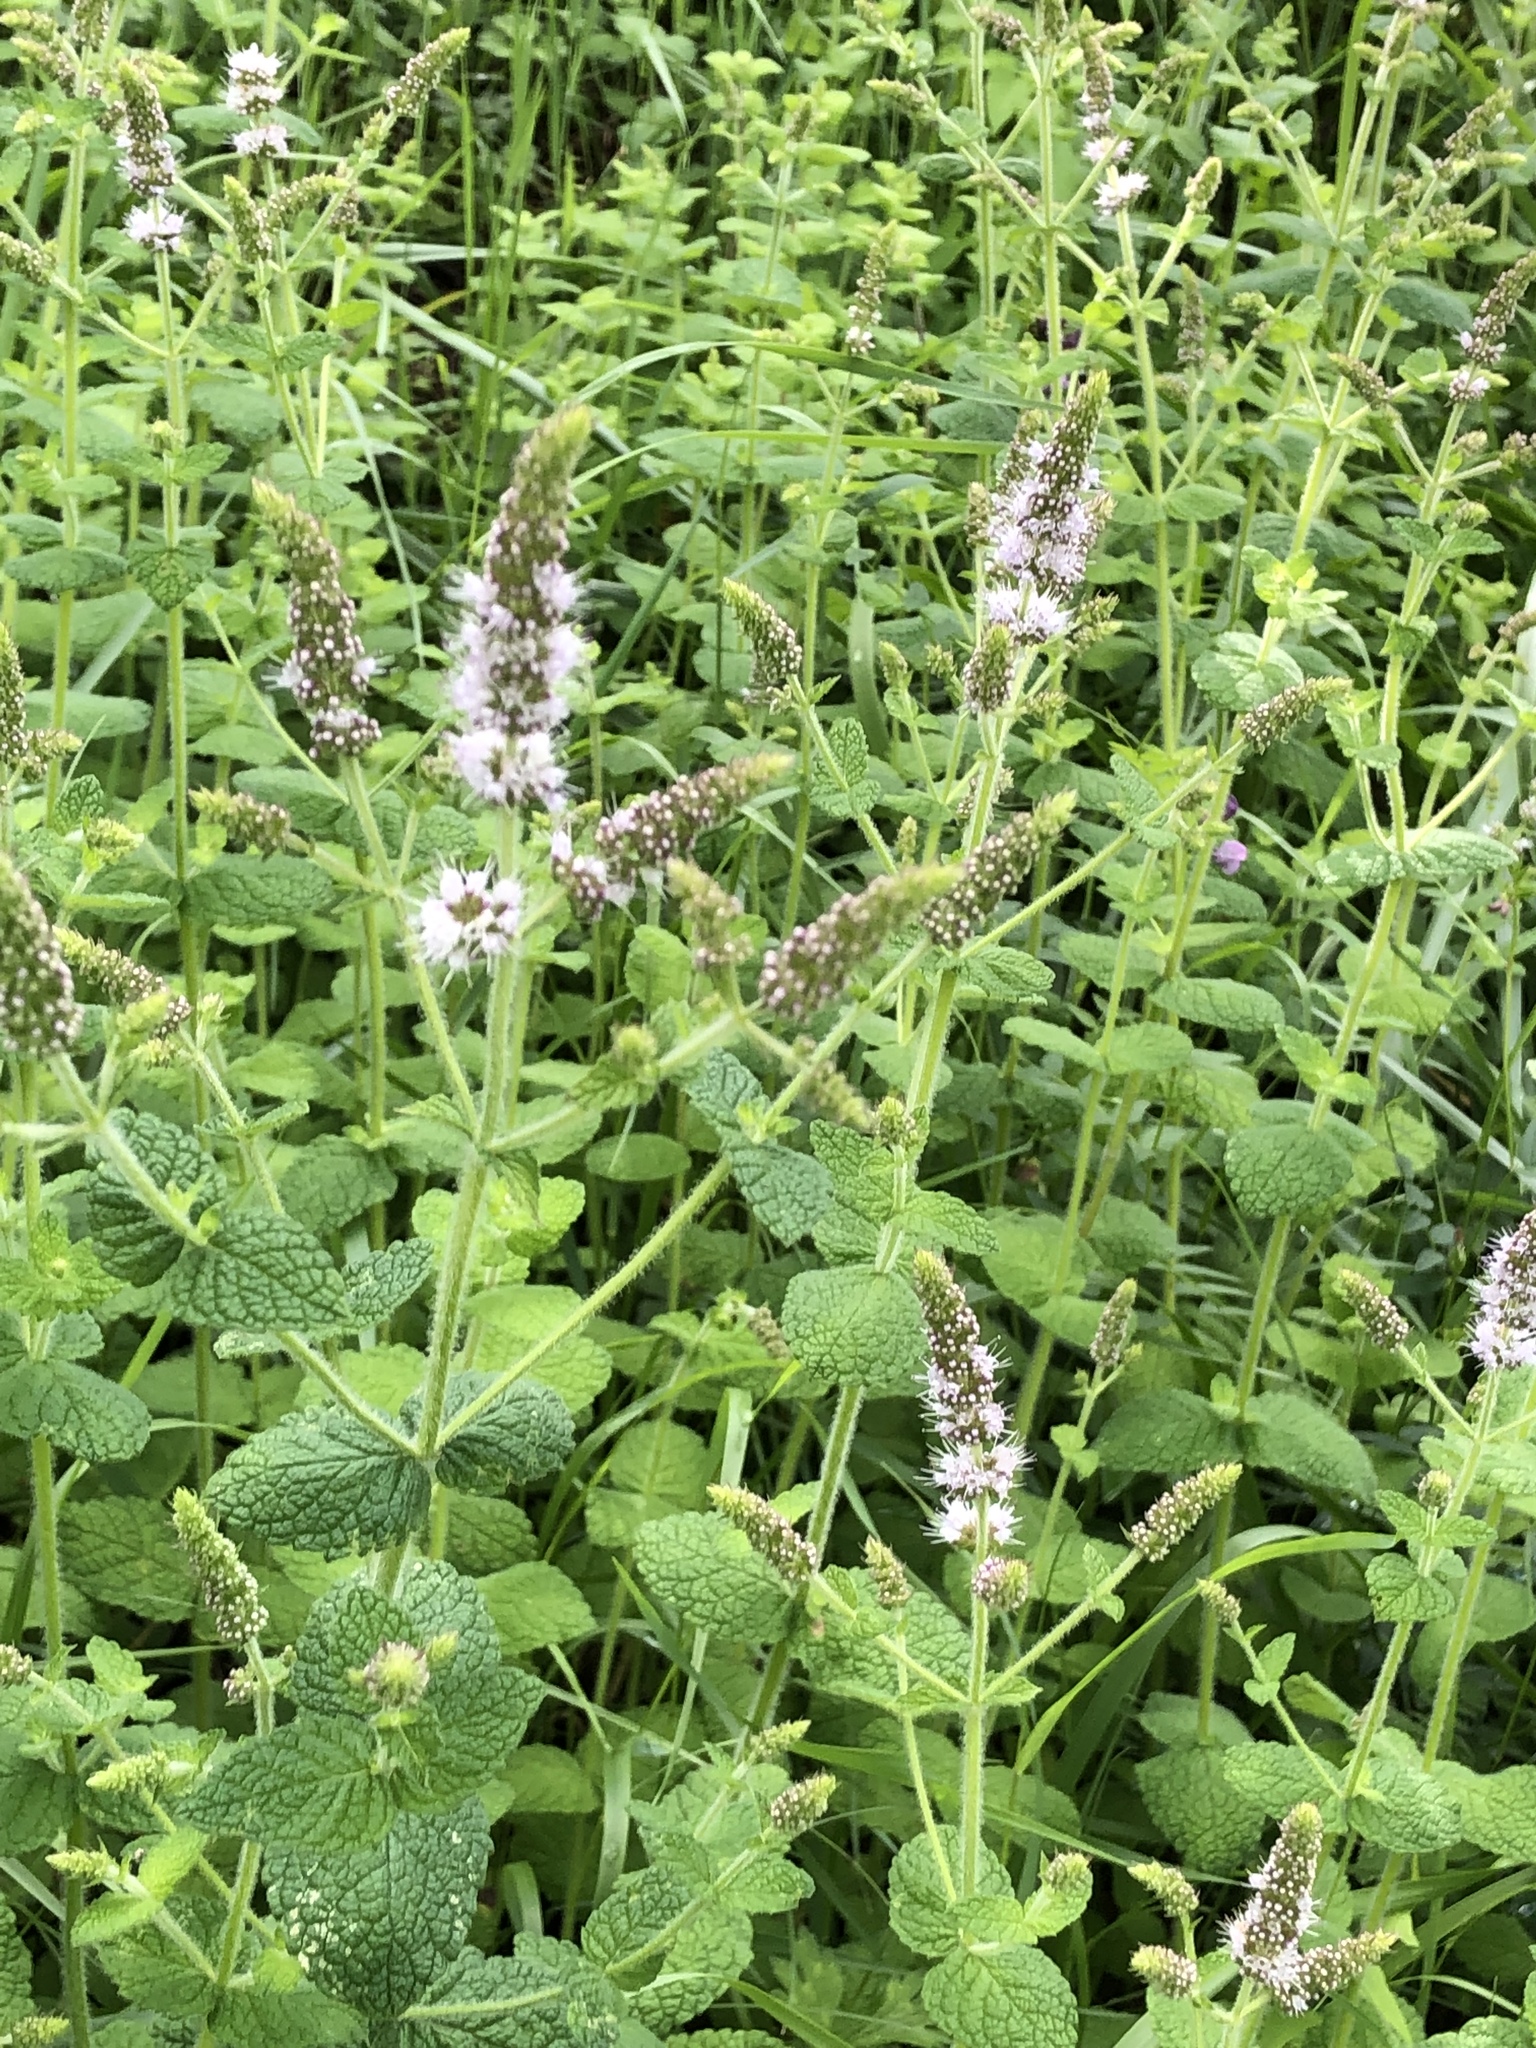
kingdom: Plantae
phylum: Tracheophyta
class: Magnoliopsida
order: Lamiales
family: Lamiaceae
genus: Mentha
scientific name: Mentha suaveolens
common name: Apple mint
